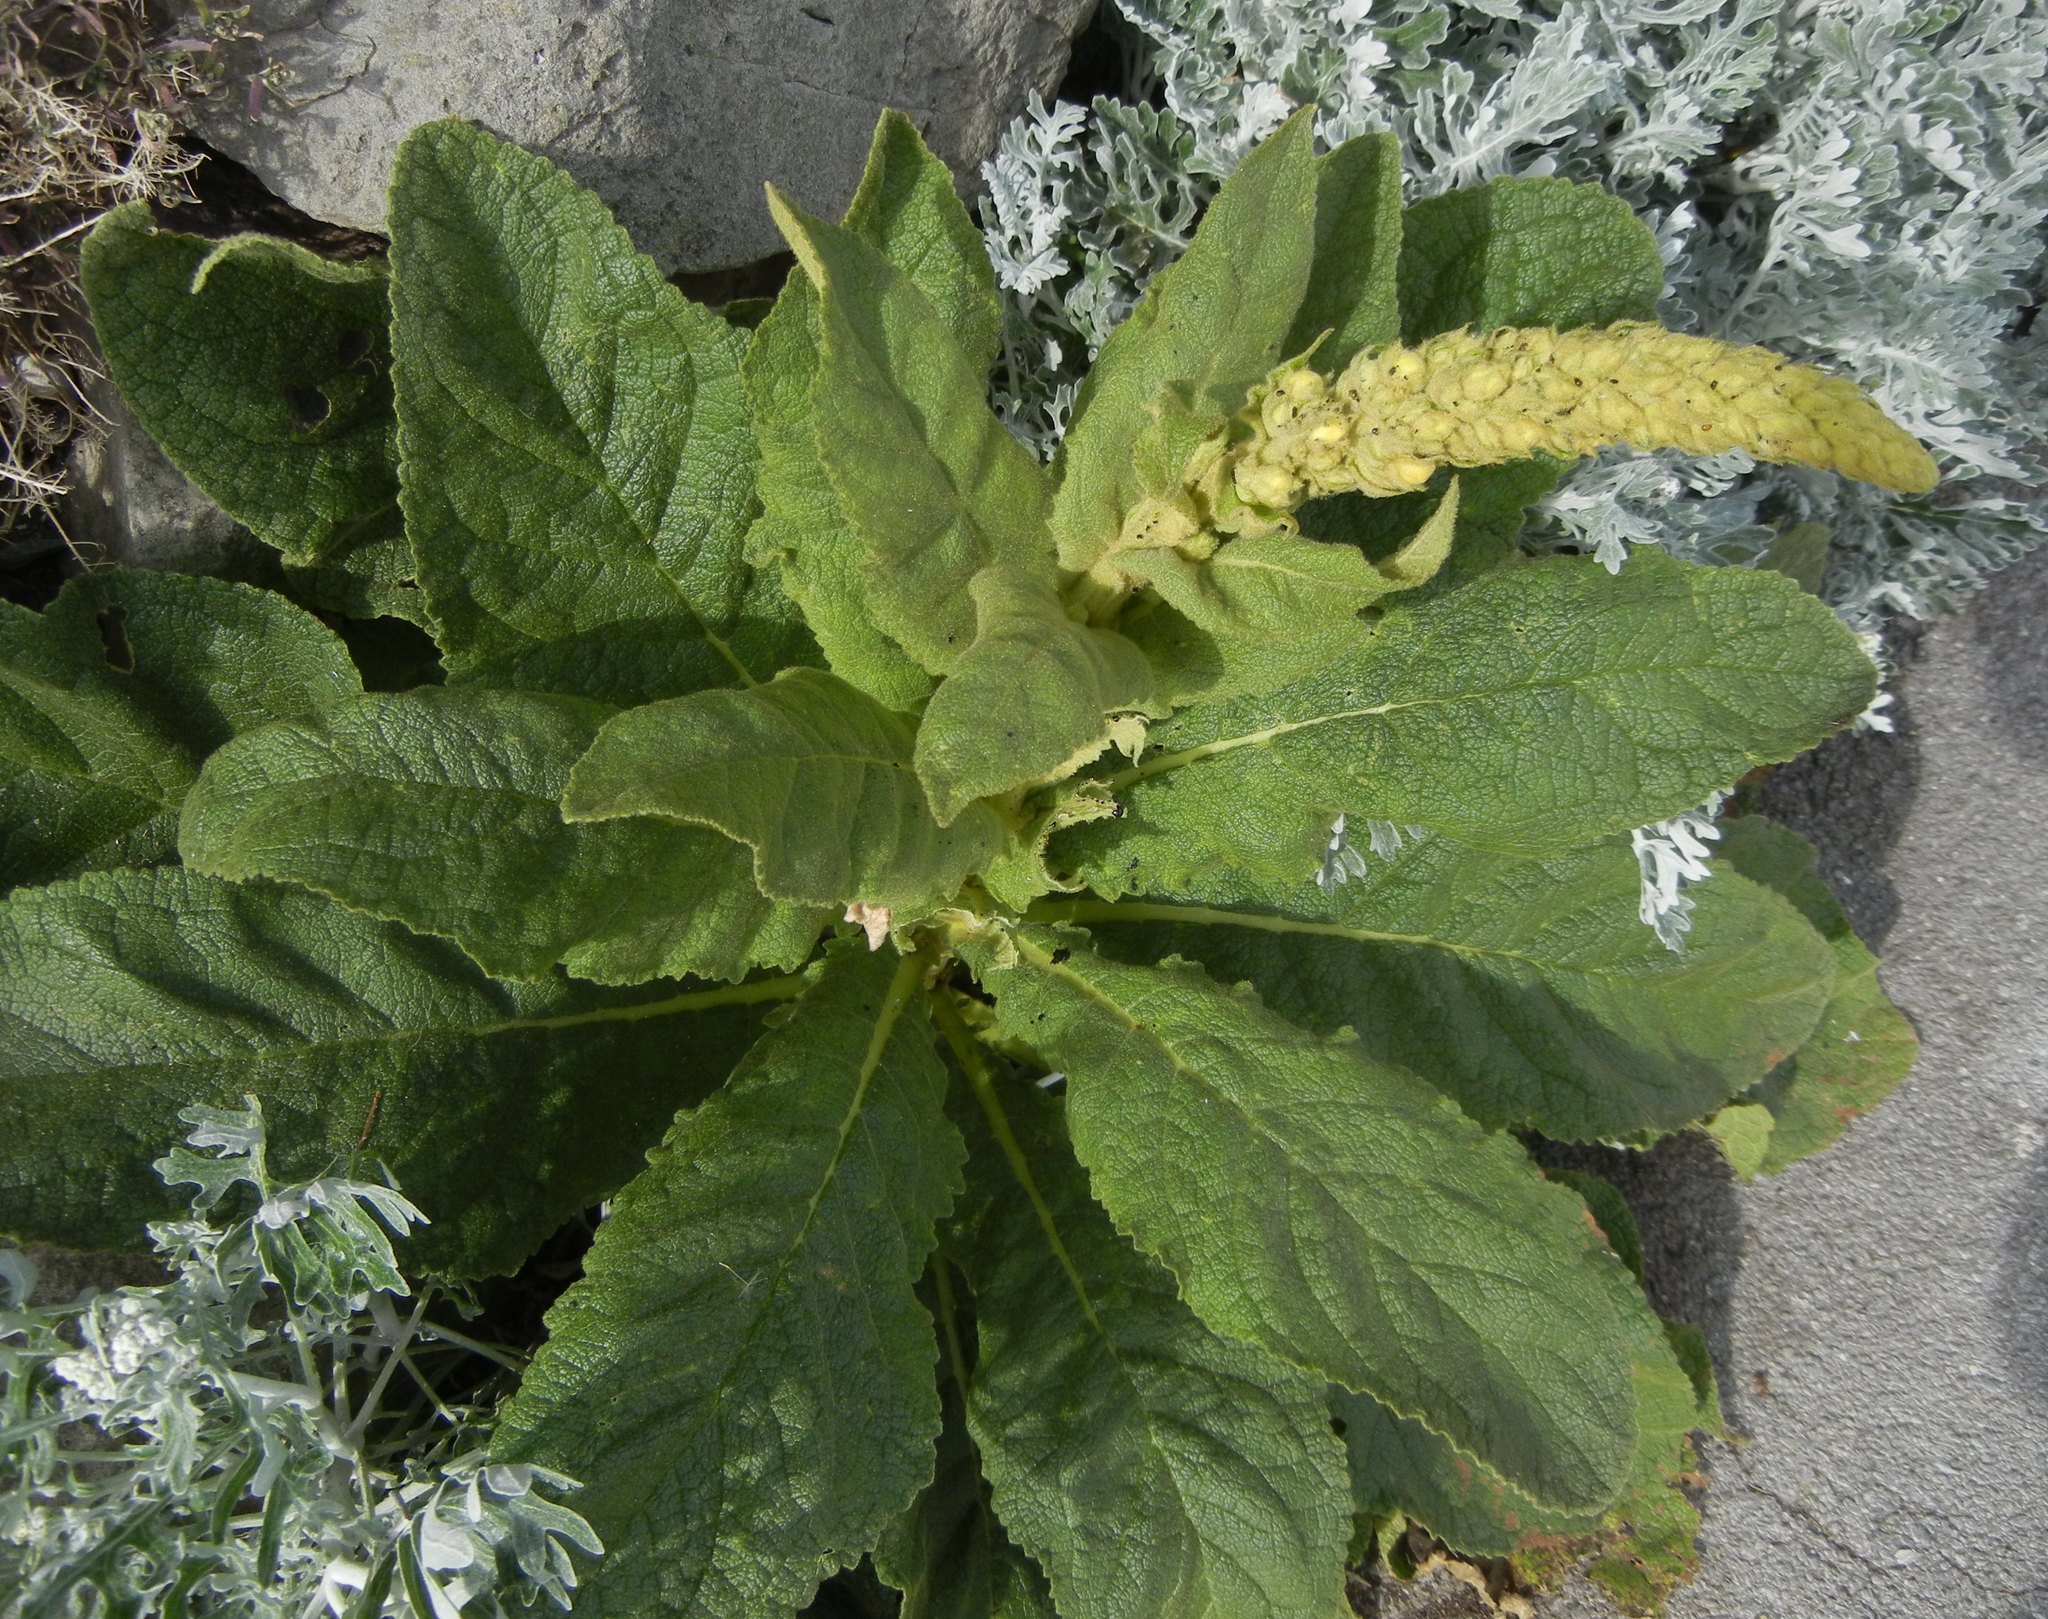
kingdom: Plantae
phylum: Tracheophyta
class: Magnoliopsida
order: Lamiales
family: Scrophulariaceae
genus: Verbascum
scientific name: Verbascum thapsus
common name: Common mullein
